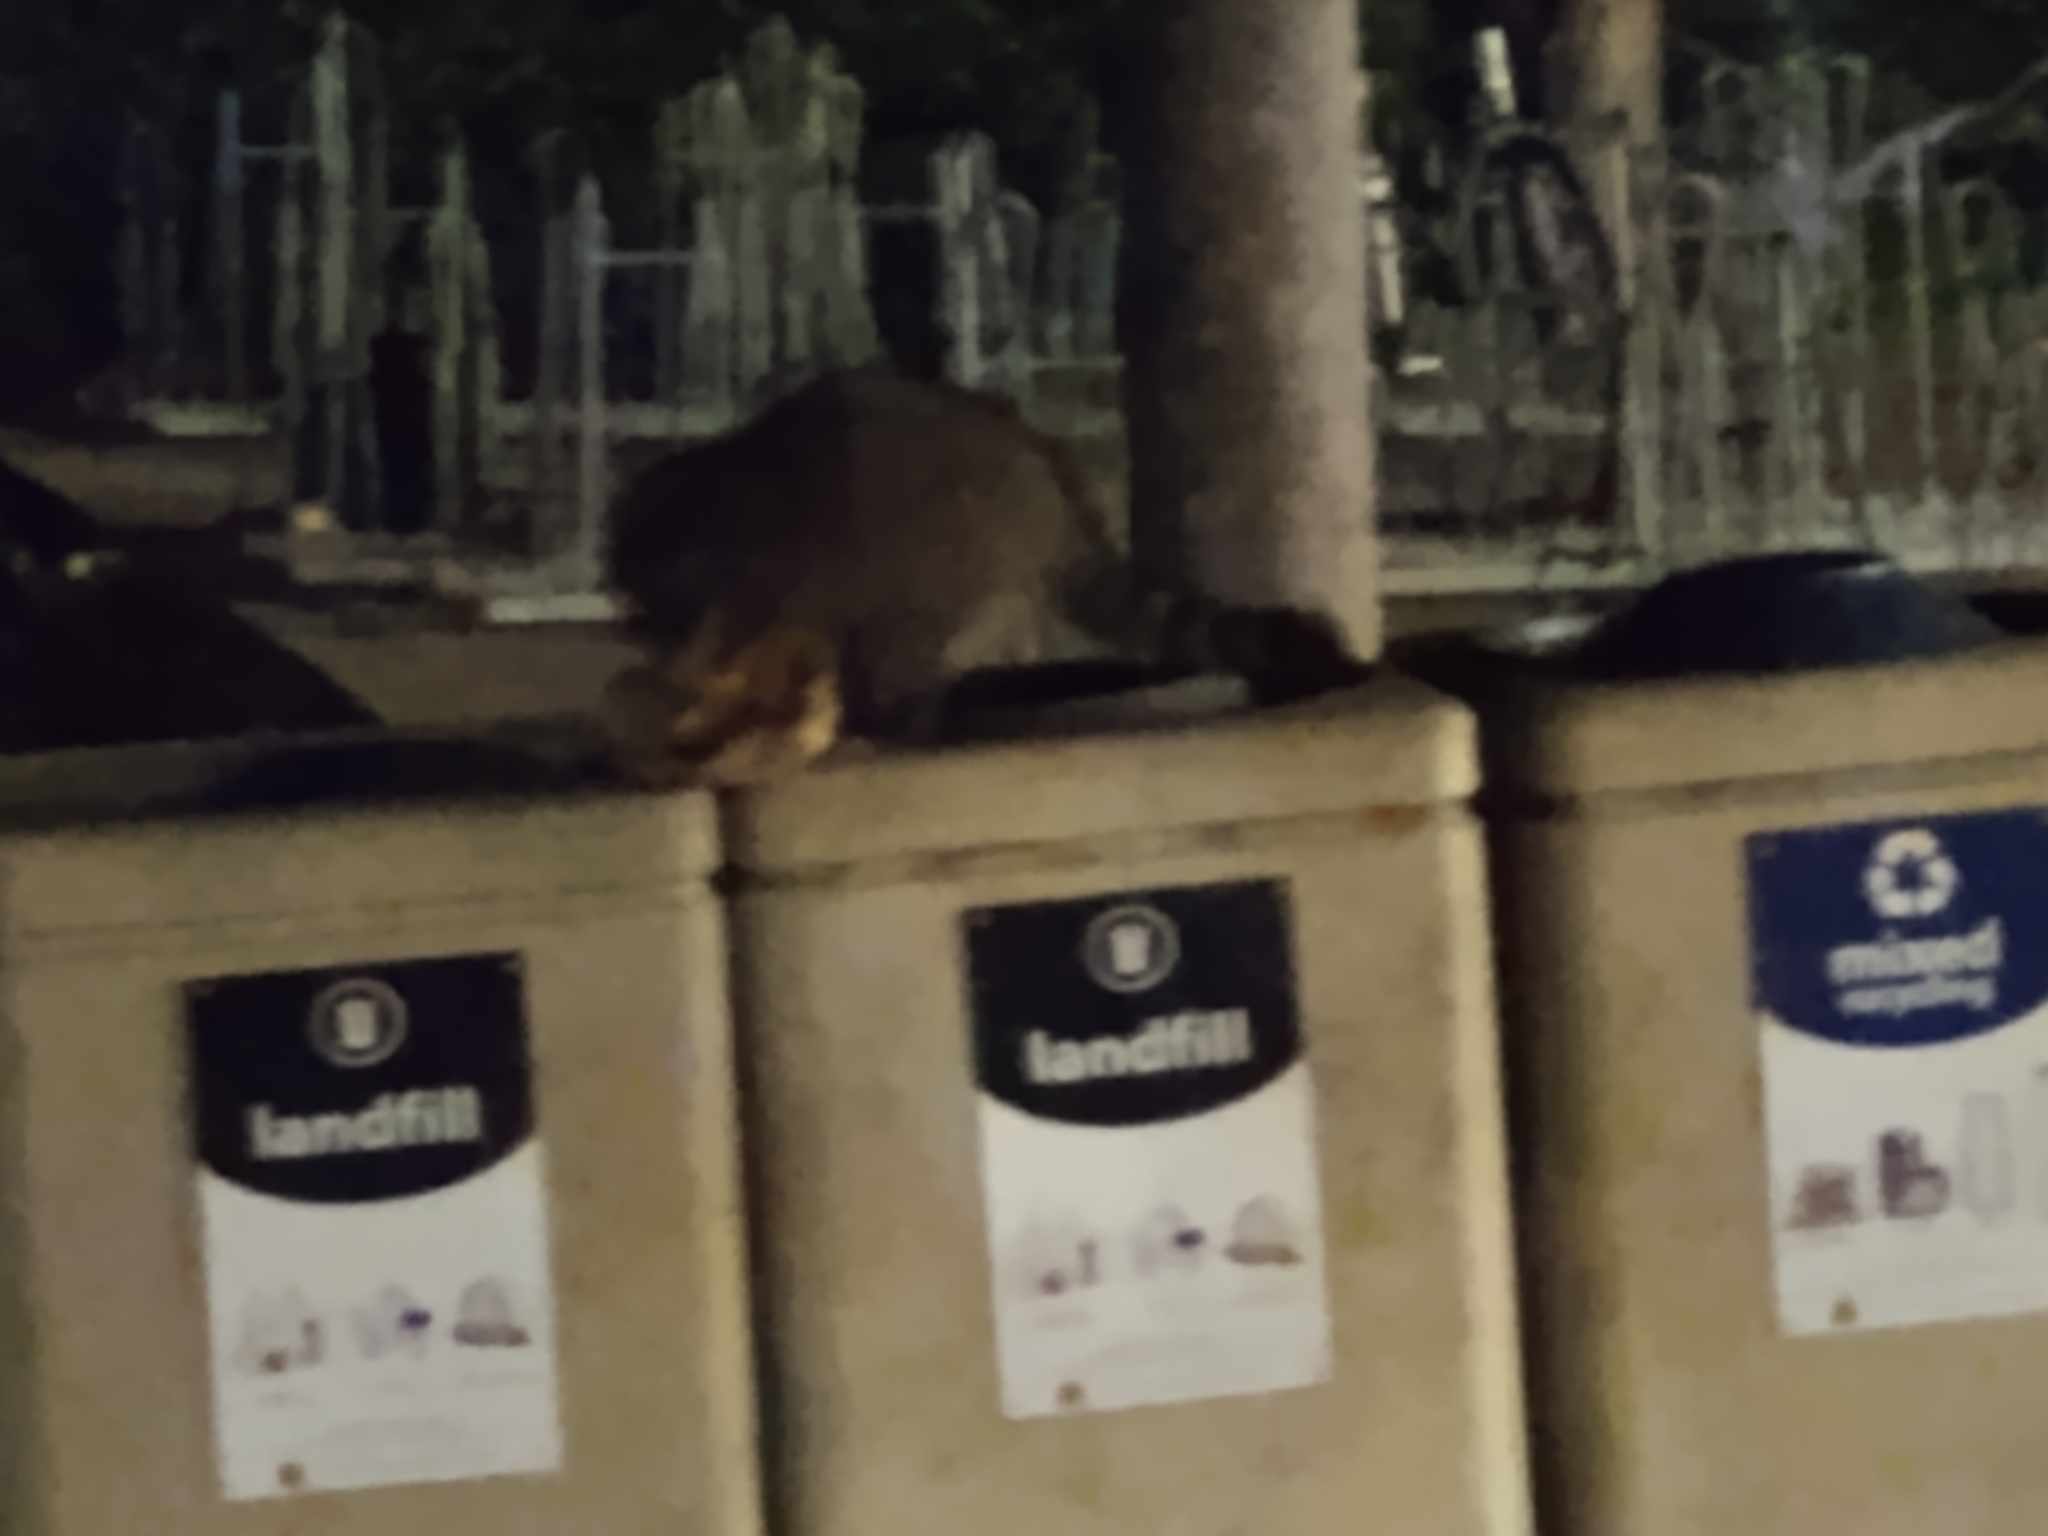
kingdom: Animalia
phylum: Chordata
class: Mammalia
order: Carnivora
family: Procyonidae
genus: Procyon
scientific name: Procyon lotor
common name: Raccoon
